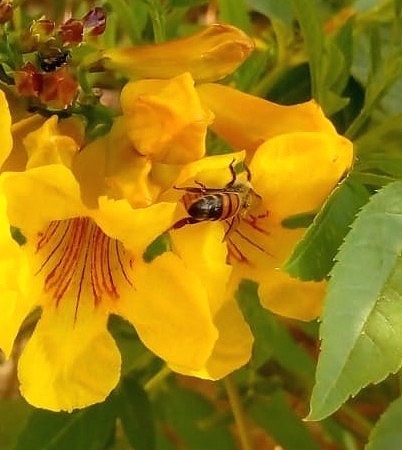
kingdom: Animalia
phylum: Arthropoda
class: Insecta
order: Hymenoptera
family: Apidae
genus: Apis
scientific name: Apis mellifera
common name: Honey bee
